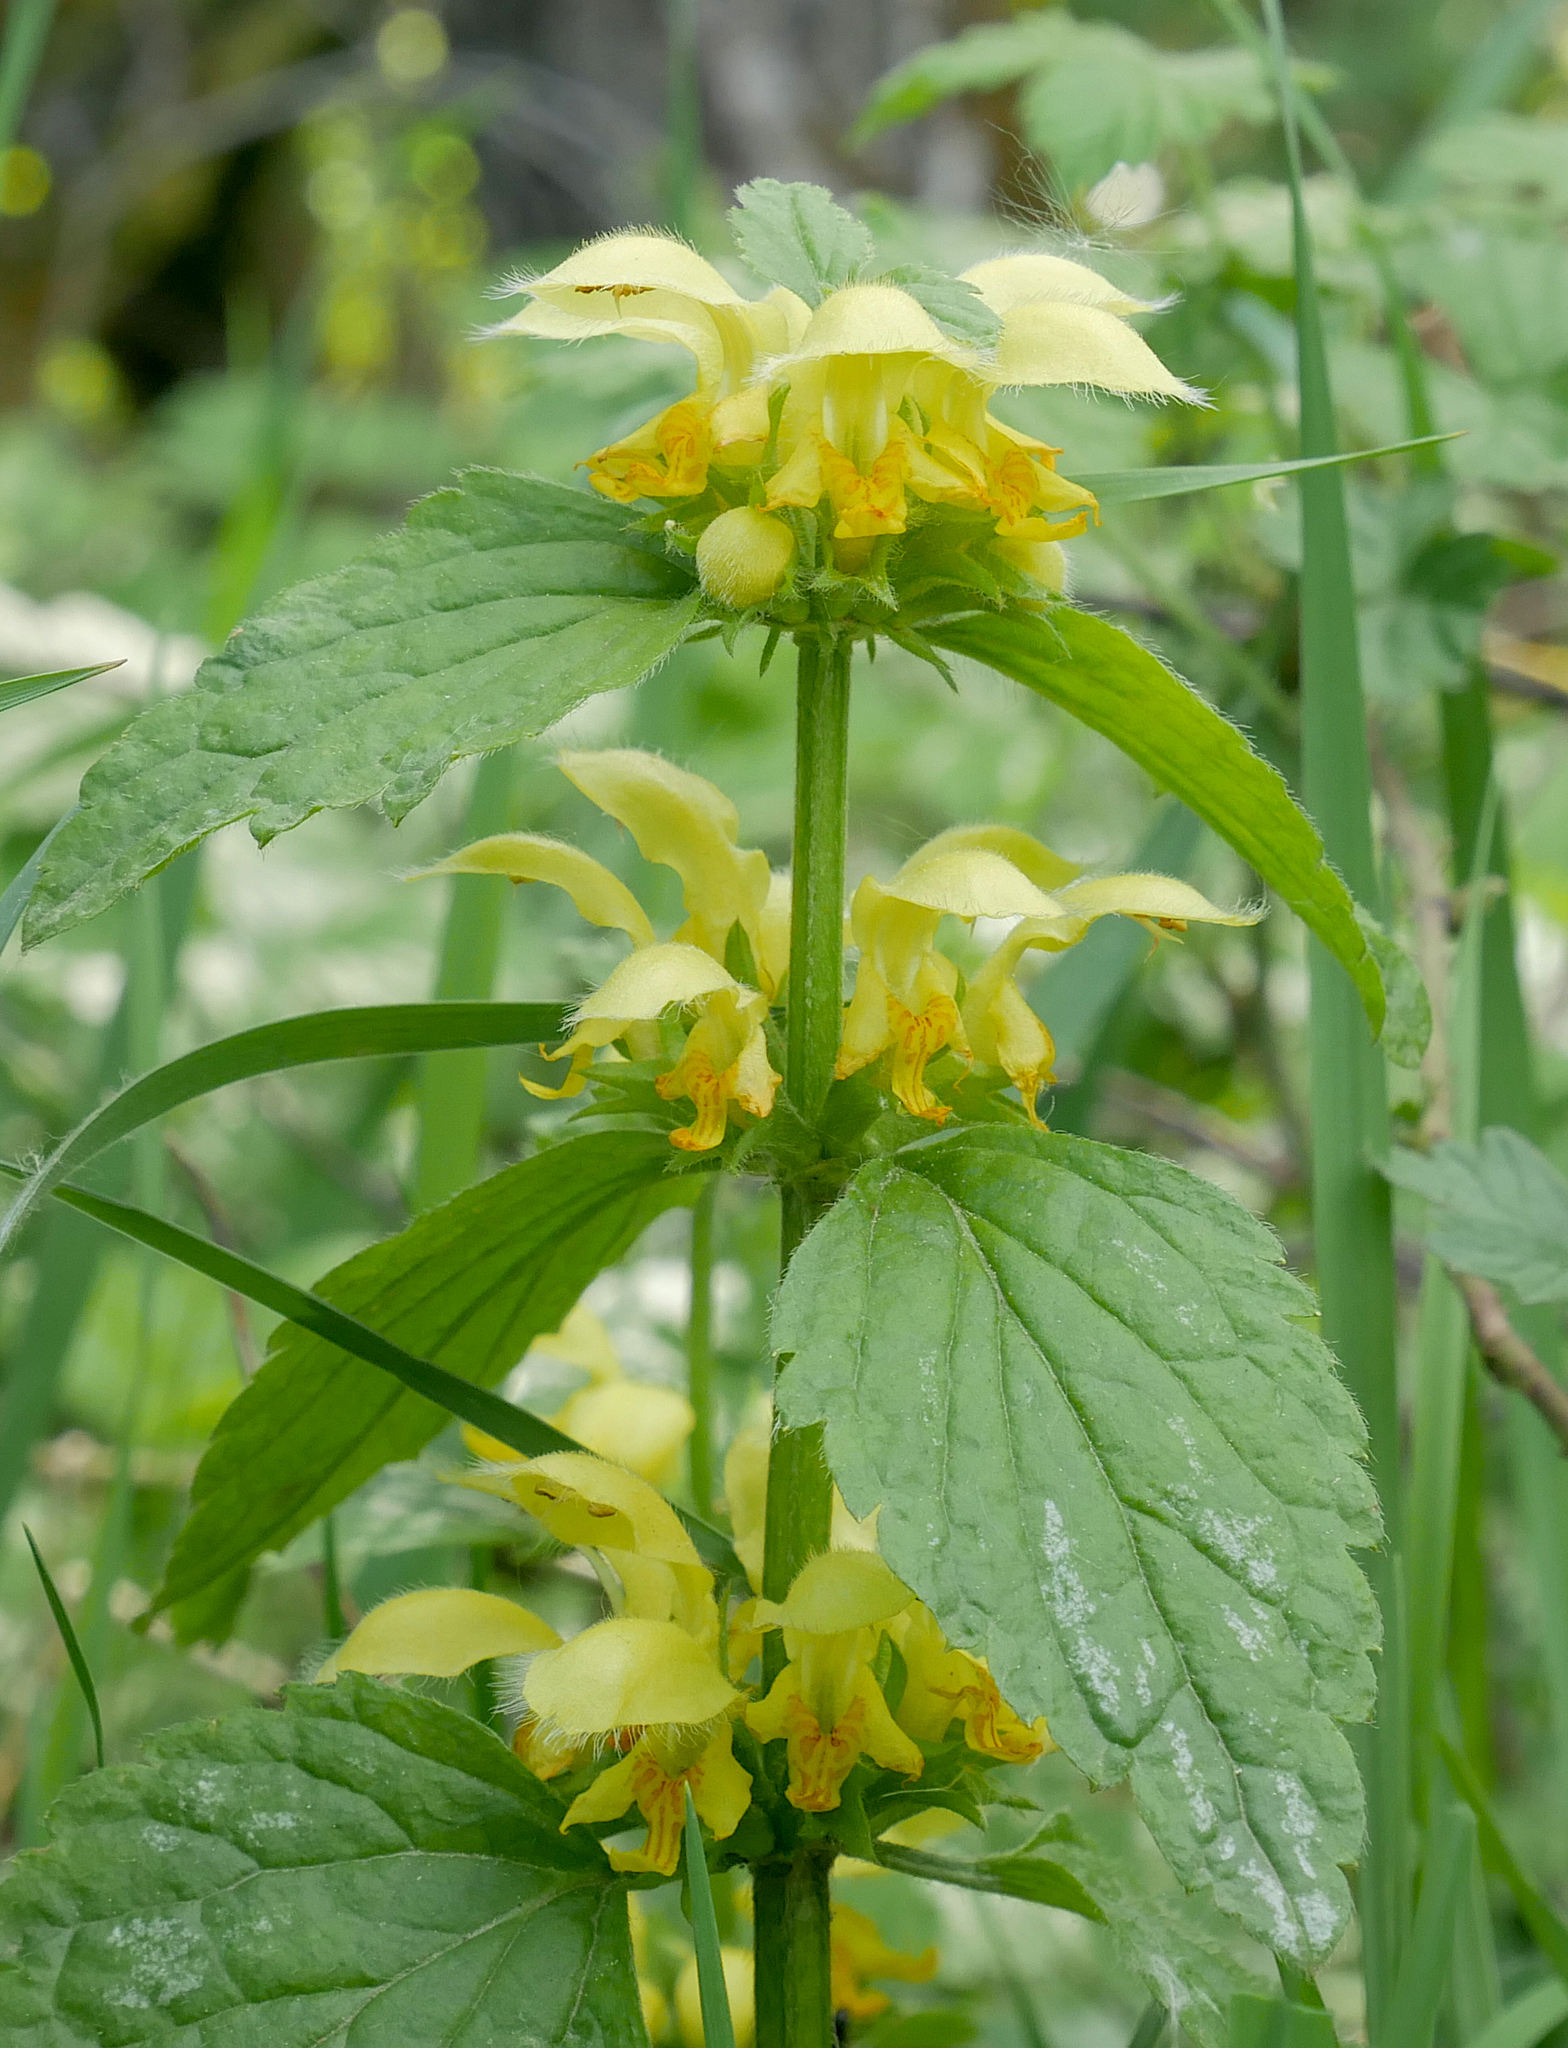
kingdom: Plantae
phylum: Tracheophyta
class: Magnoliopsida
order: Lamiales
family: Lamiaceae
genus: Lamium
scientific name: Lamium galeobdolon
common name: Yellow archangel
